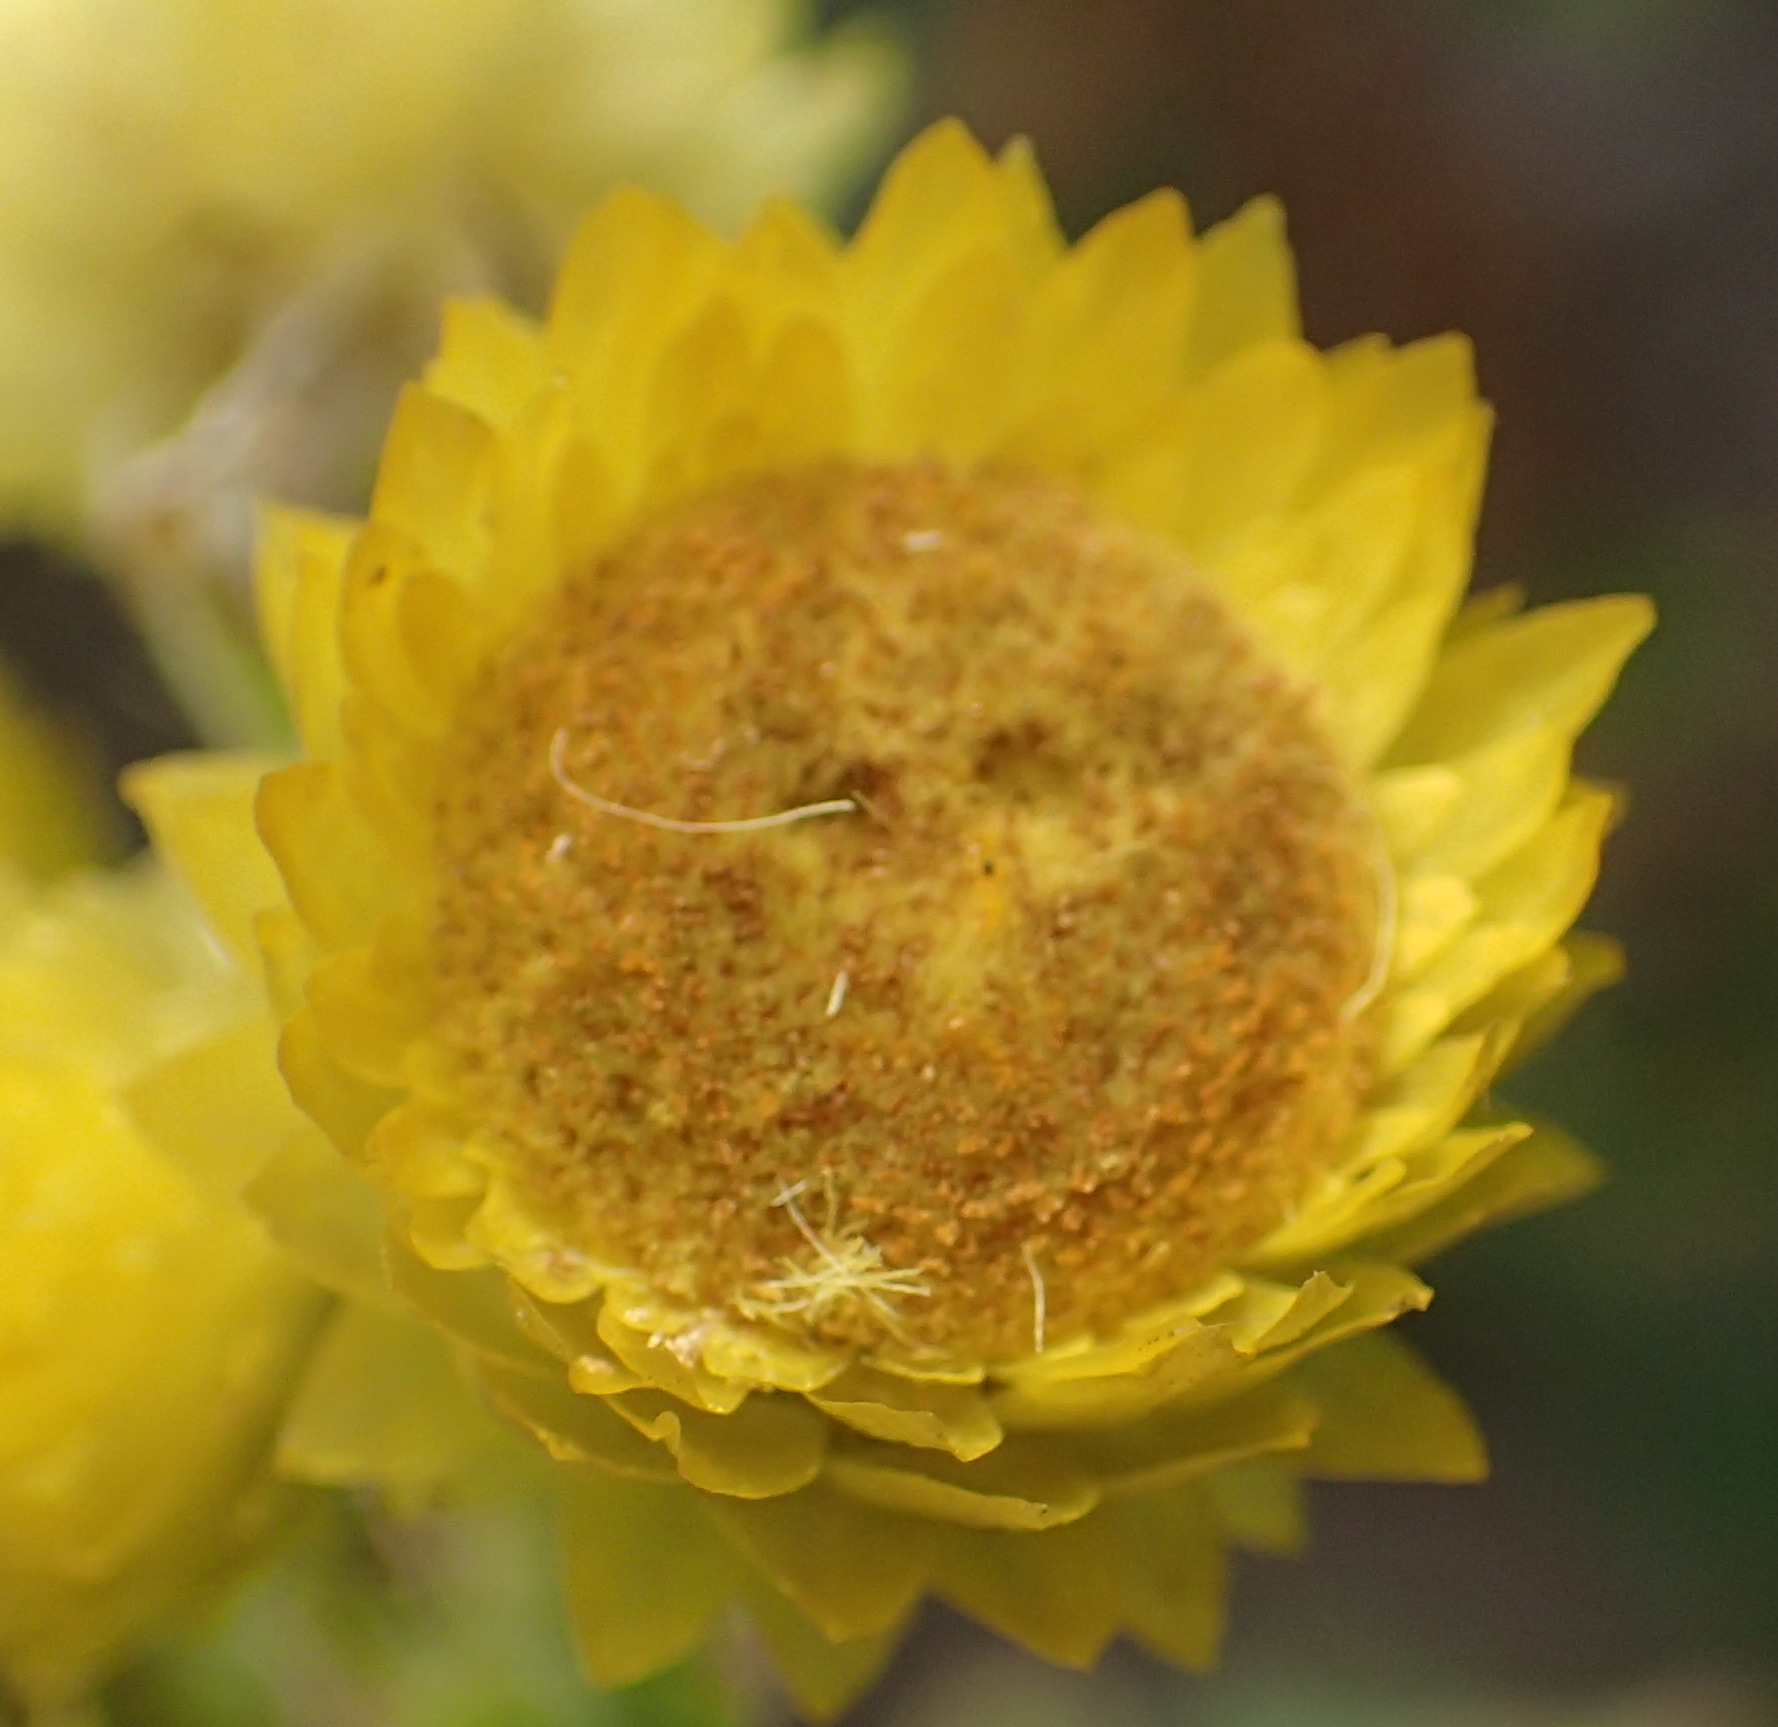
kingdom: Plantae
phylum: Tracheophyta
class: Magnoliopsida
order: Asterales
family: Asteraceae
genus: Helichrysum
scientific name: Helichrysum foetidum
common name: Stinking everlasting
